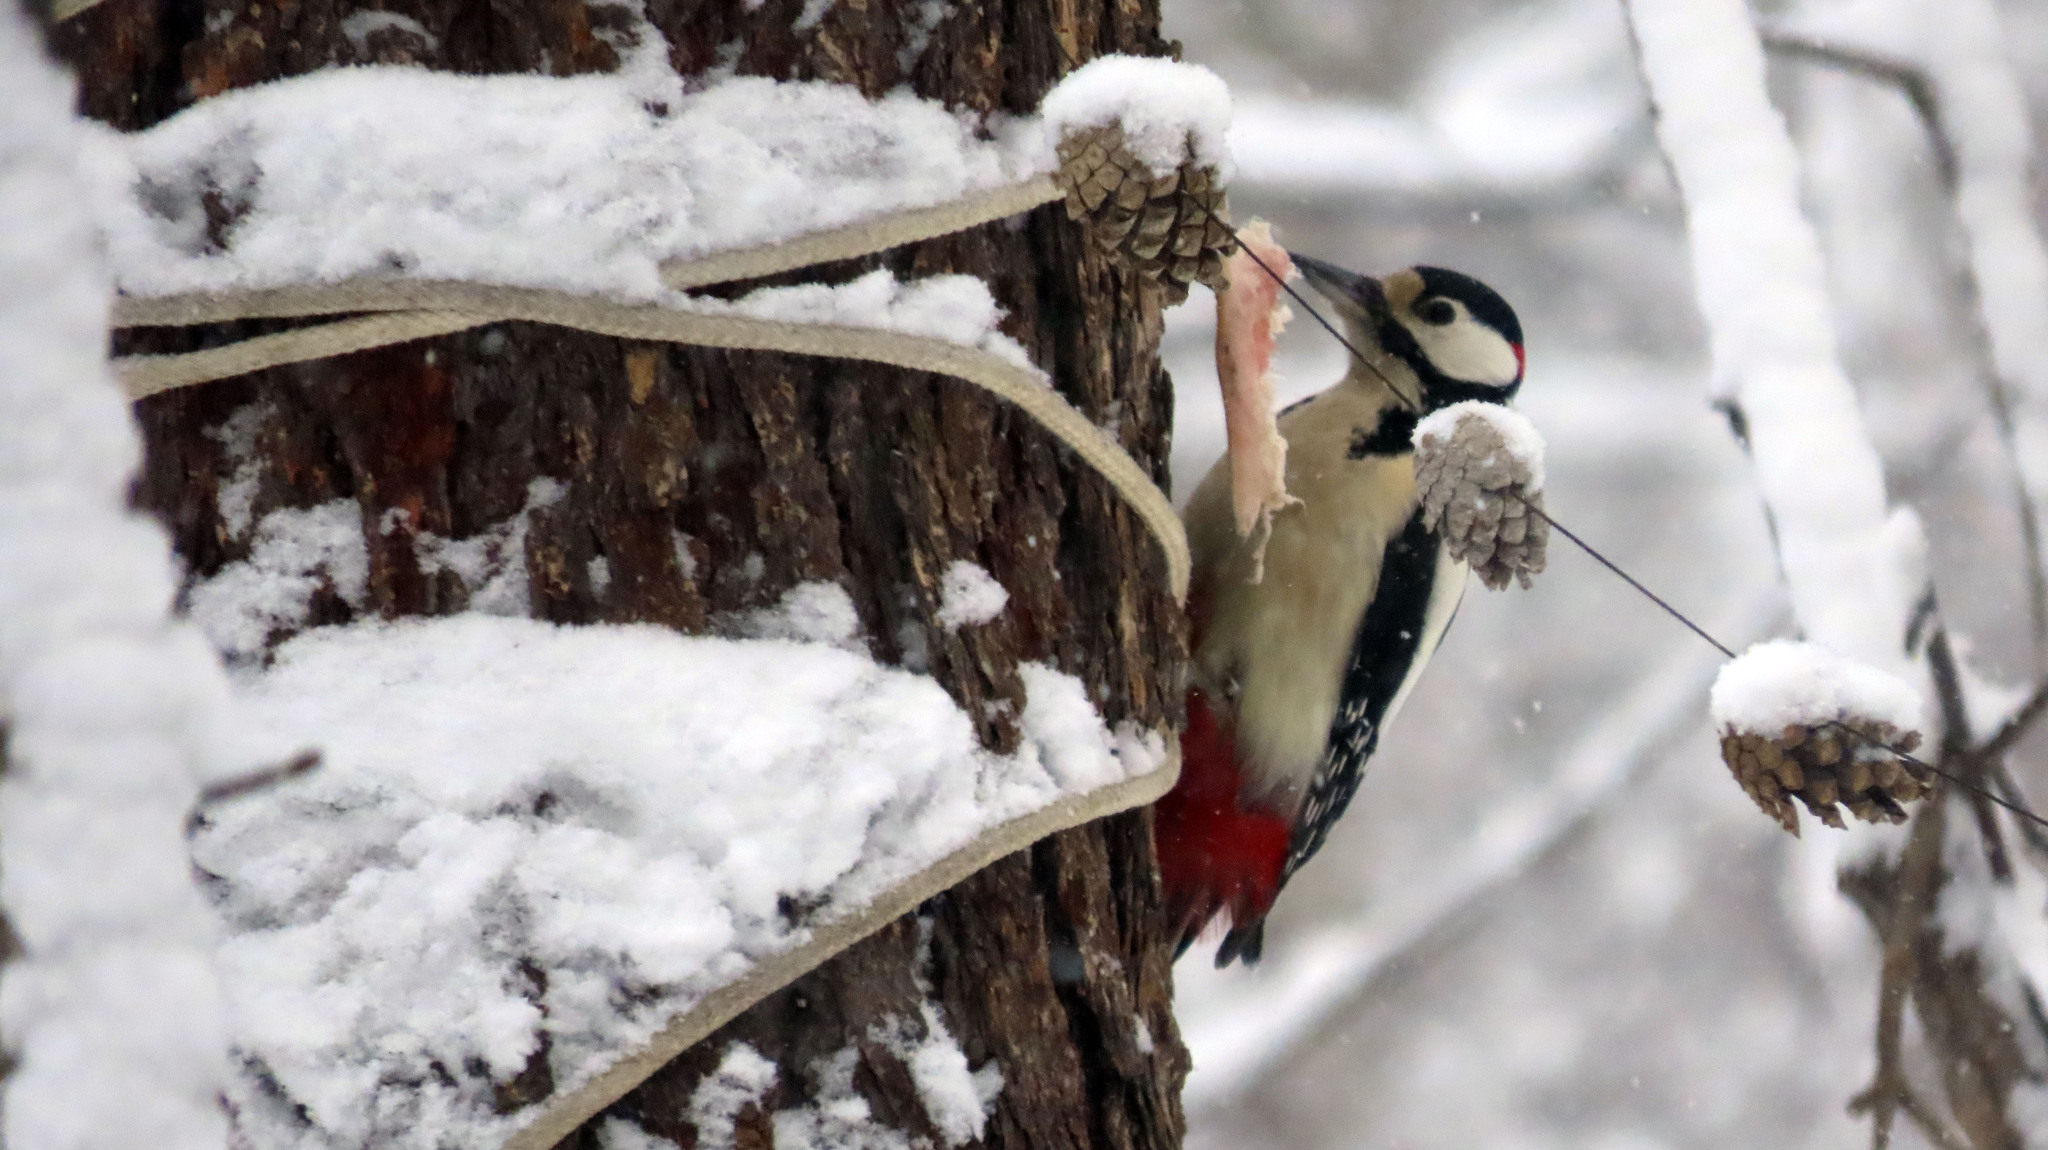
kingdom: Animalia
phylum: Chordata
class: Aves
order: Piciformes
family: Picidae
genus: Dendrocopos
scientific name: Dendrocopos major
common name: Great spotted woodpecker
